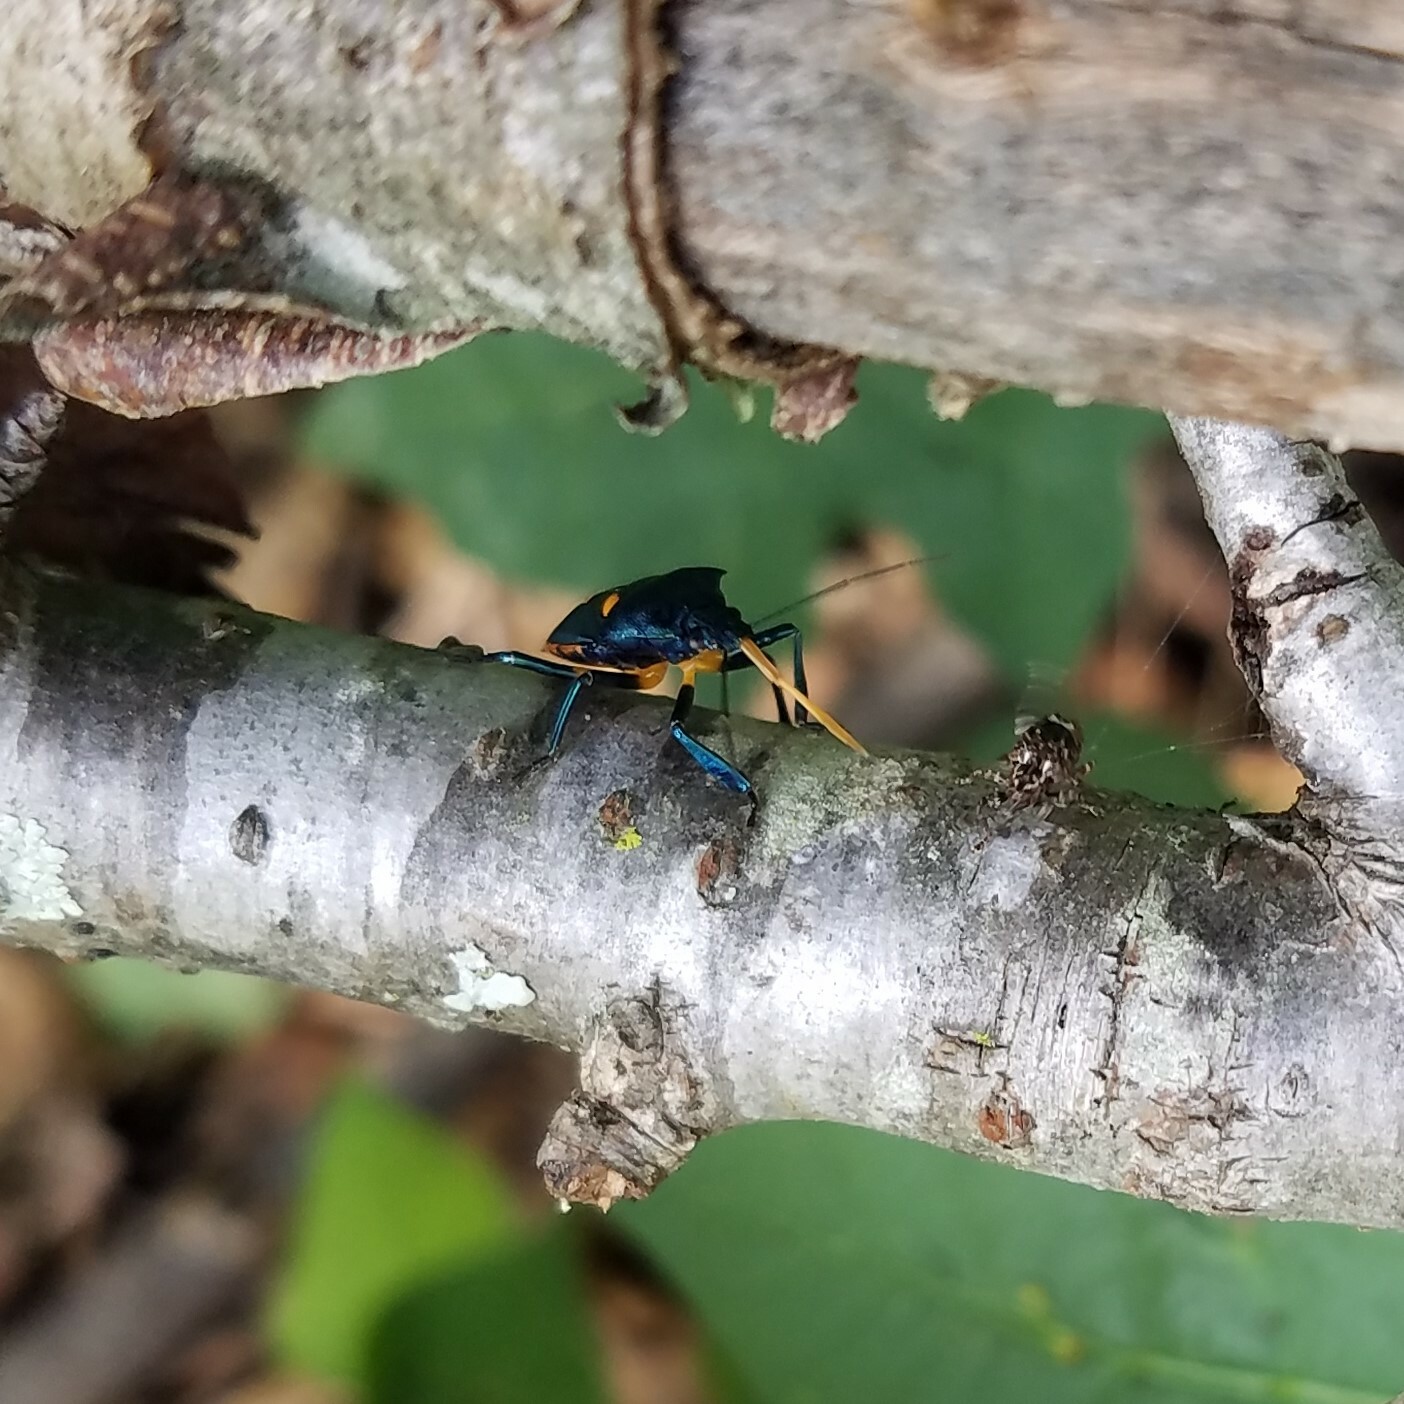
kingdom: Animalia
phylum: Arthropoda
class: Insecta
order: Hemiptera
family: Pentatomidae
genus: Euthyrhynchus
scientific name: Euthyrhynchus floridanus
